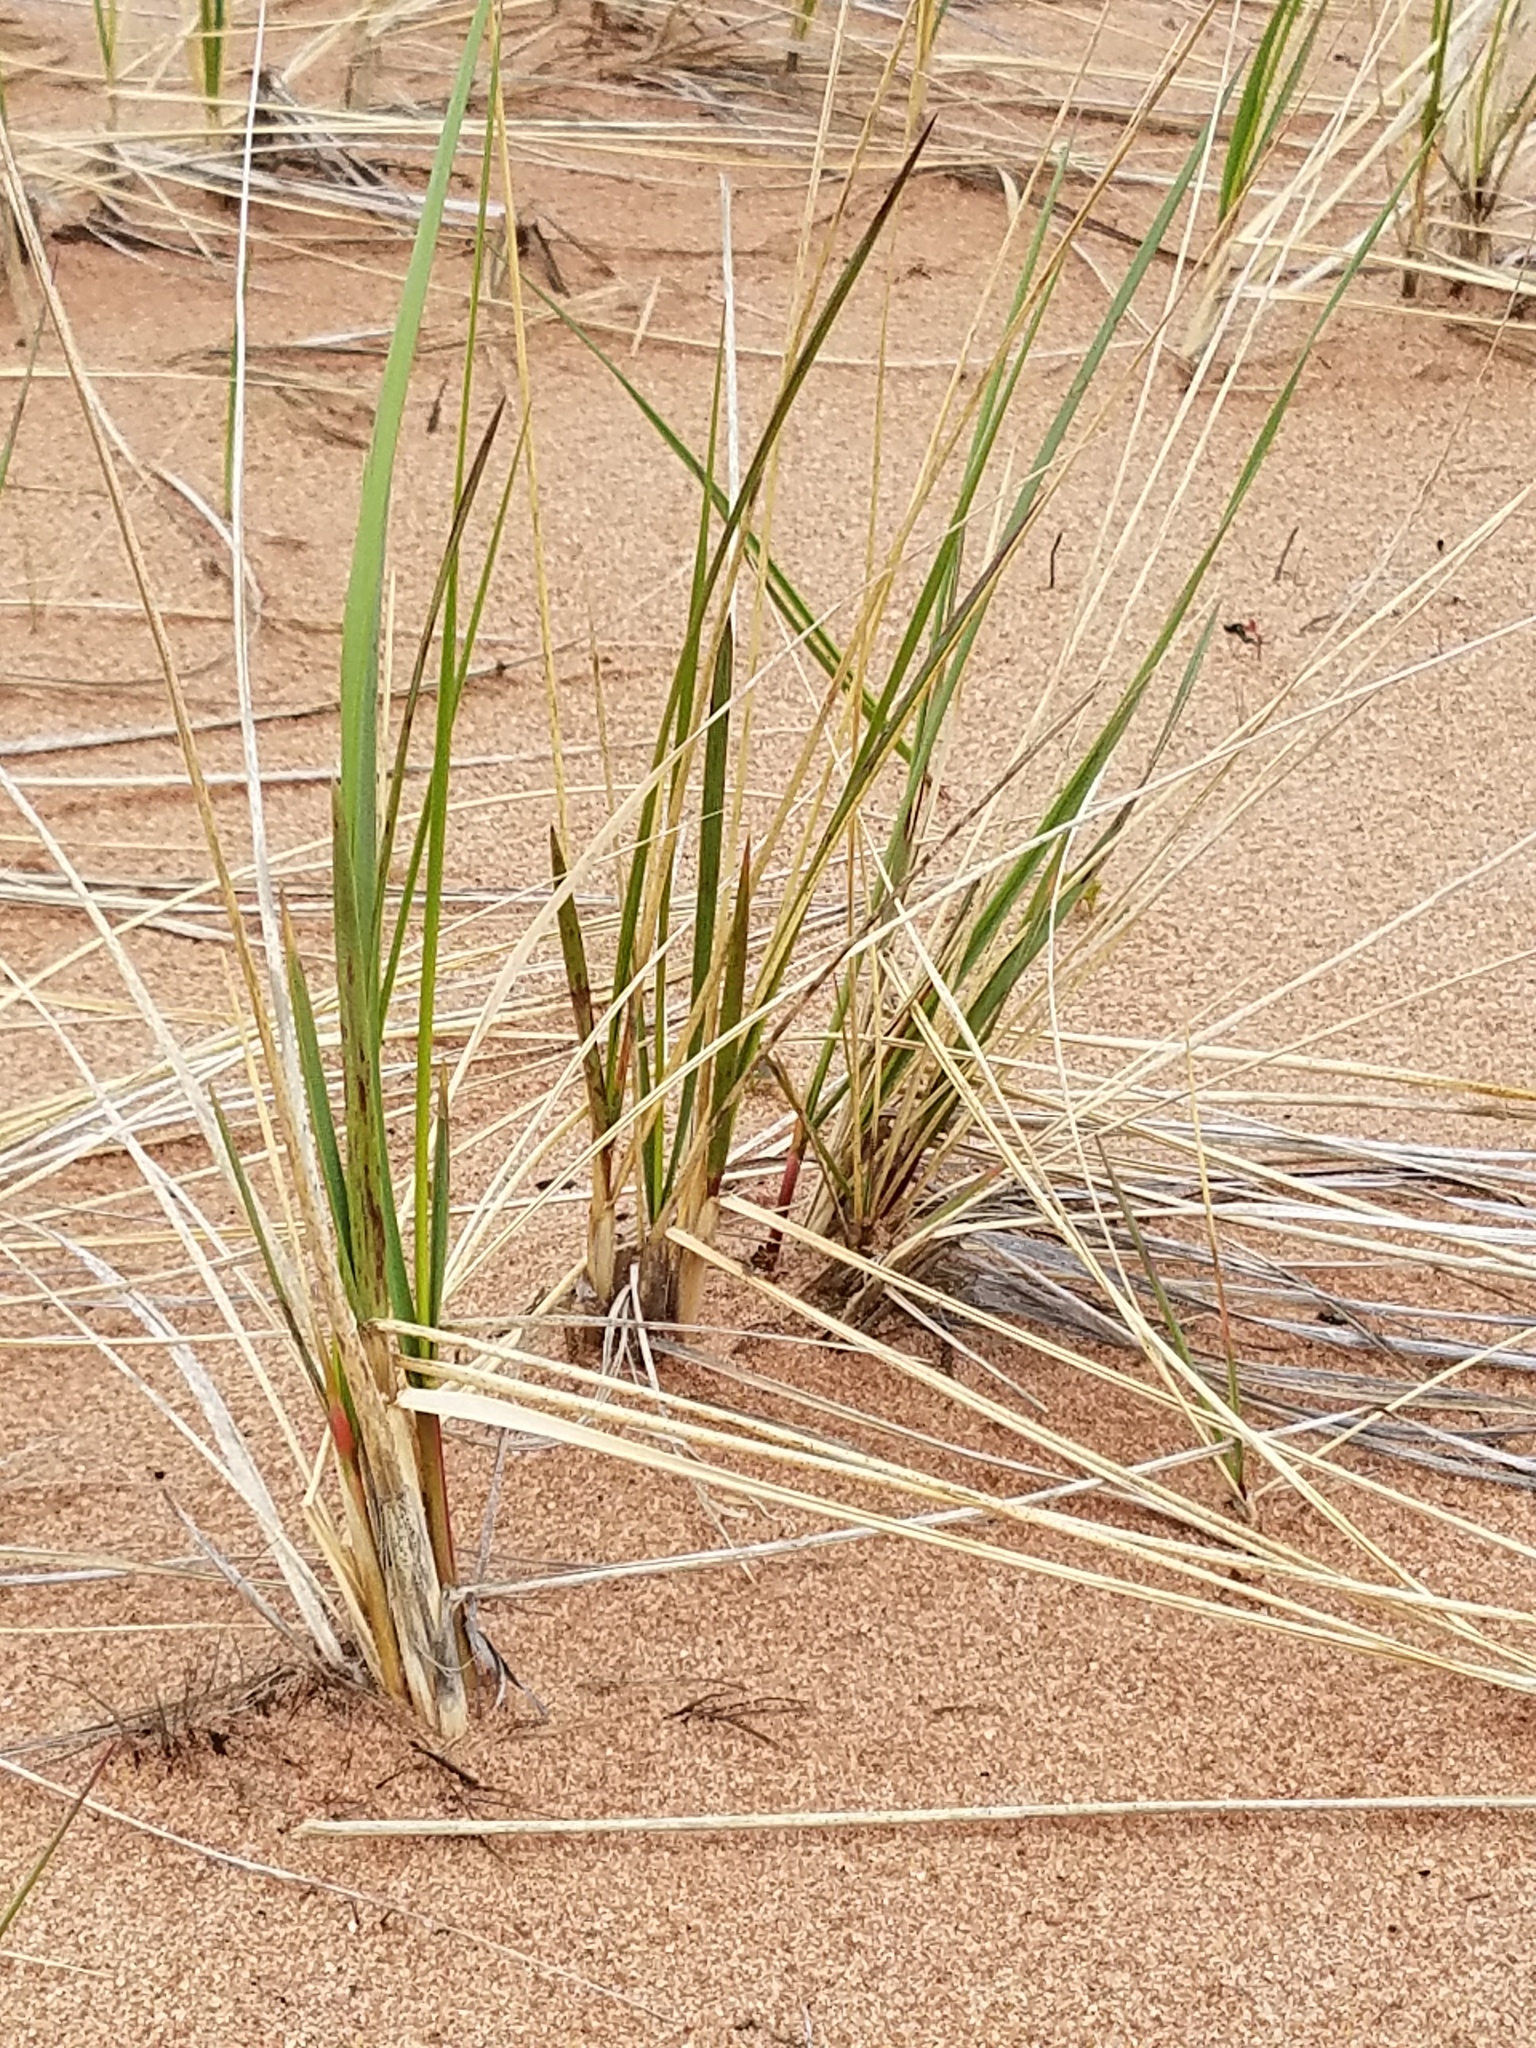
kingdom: Plantae
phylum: Tracheophyta
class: Liliopsida
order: Poales
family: Poaceae
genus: Calamagrostis
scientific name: Calamagrostis breviligulata
